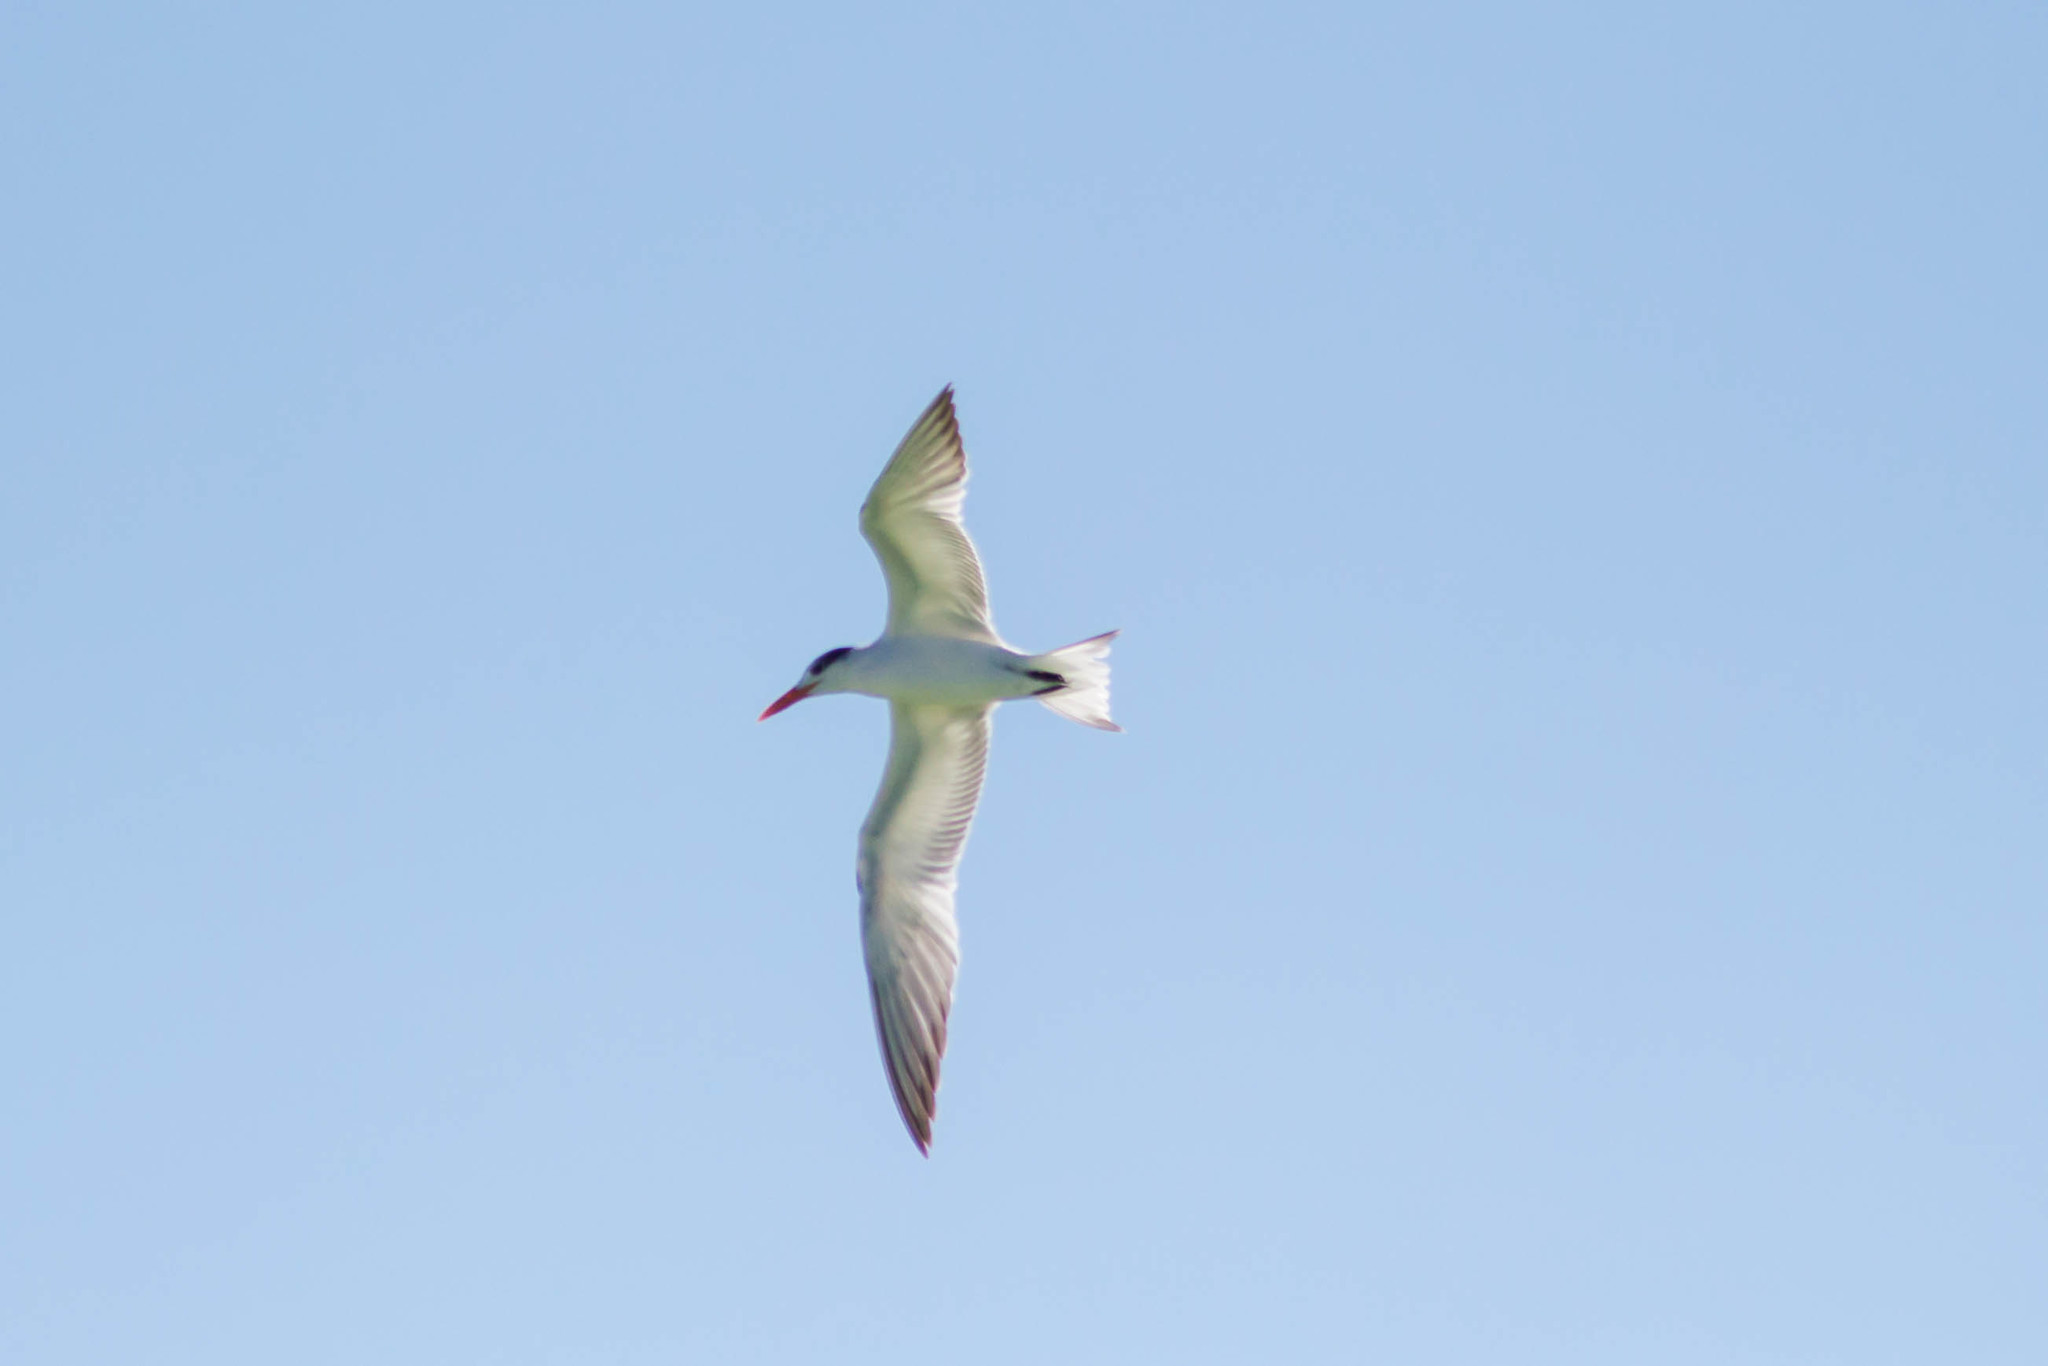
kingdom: Animalia
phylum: Chordata
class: Aves
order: Charadriiformes
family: Laridae
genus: Thalasseus
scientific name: Thalasseus maximus
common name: Royal tern
